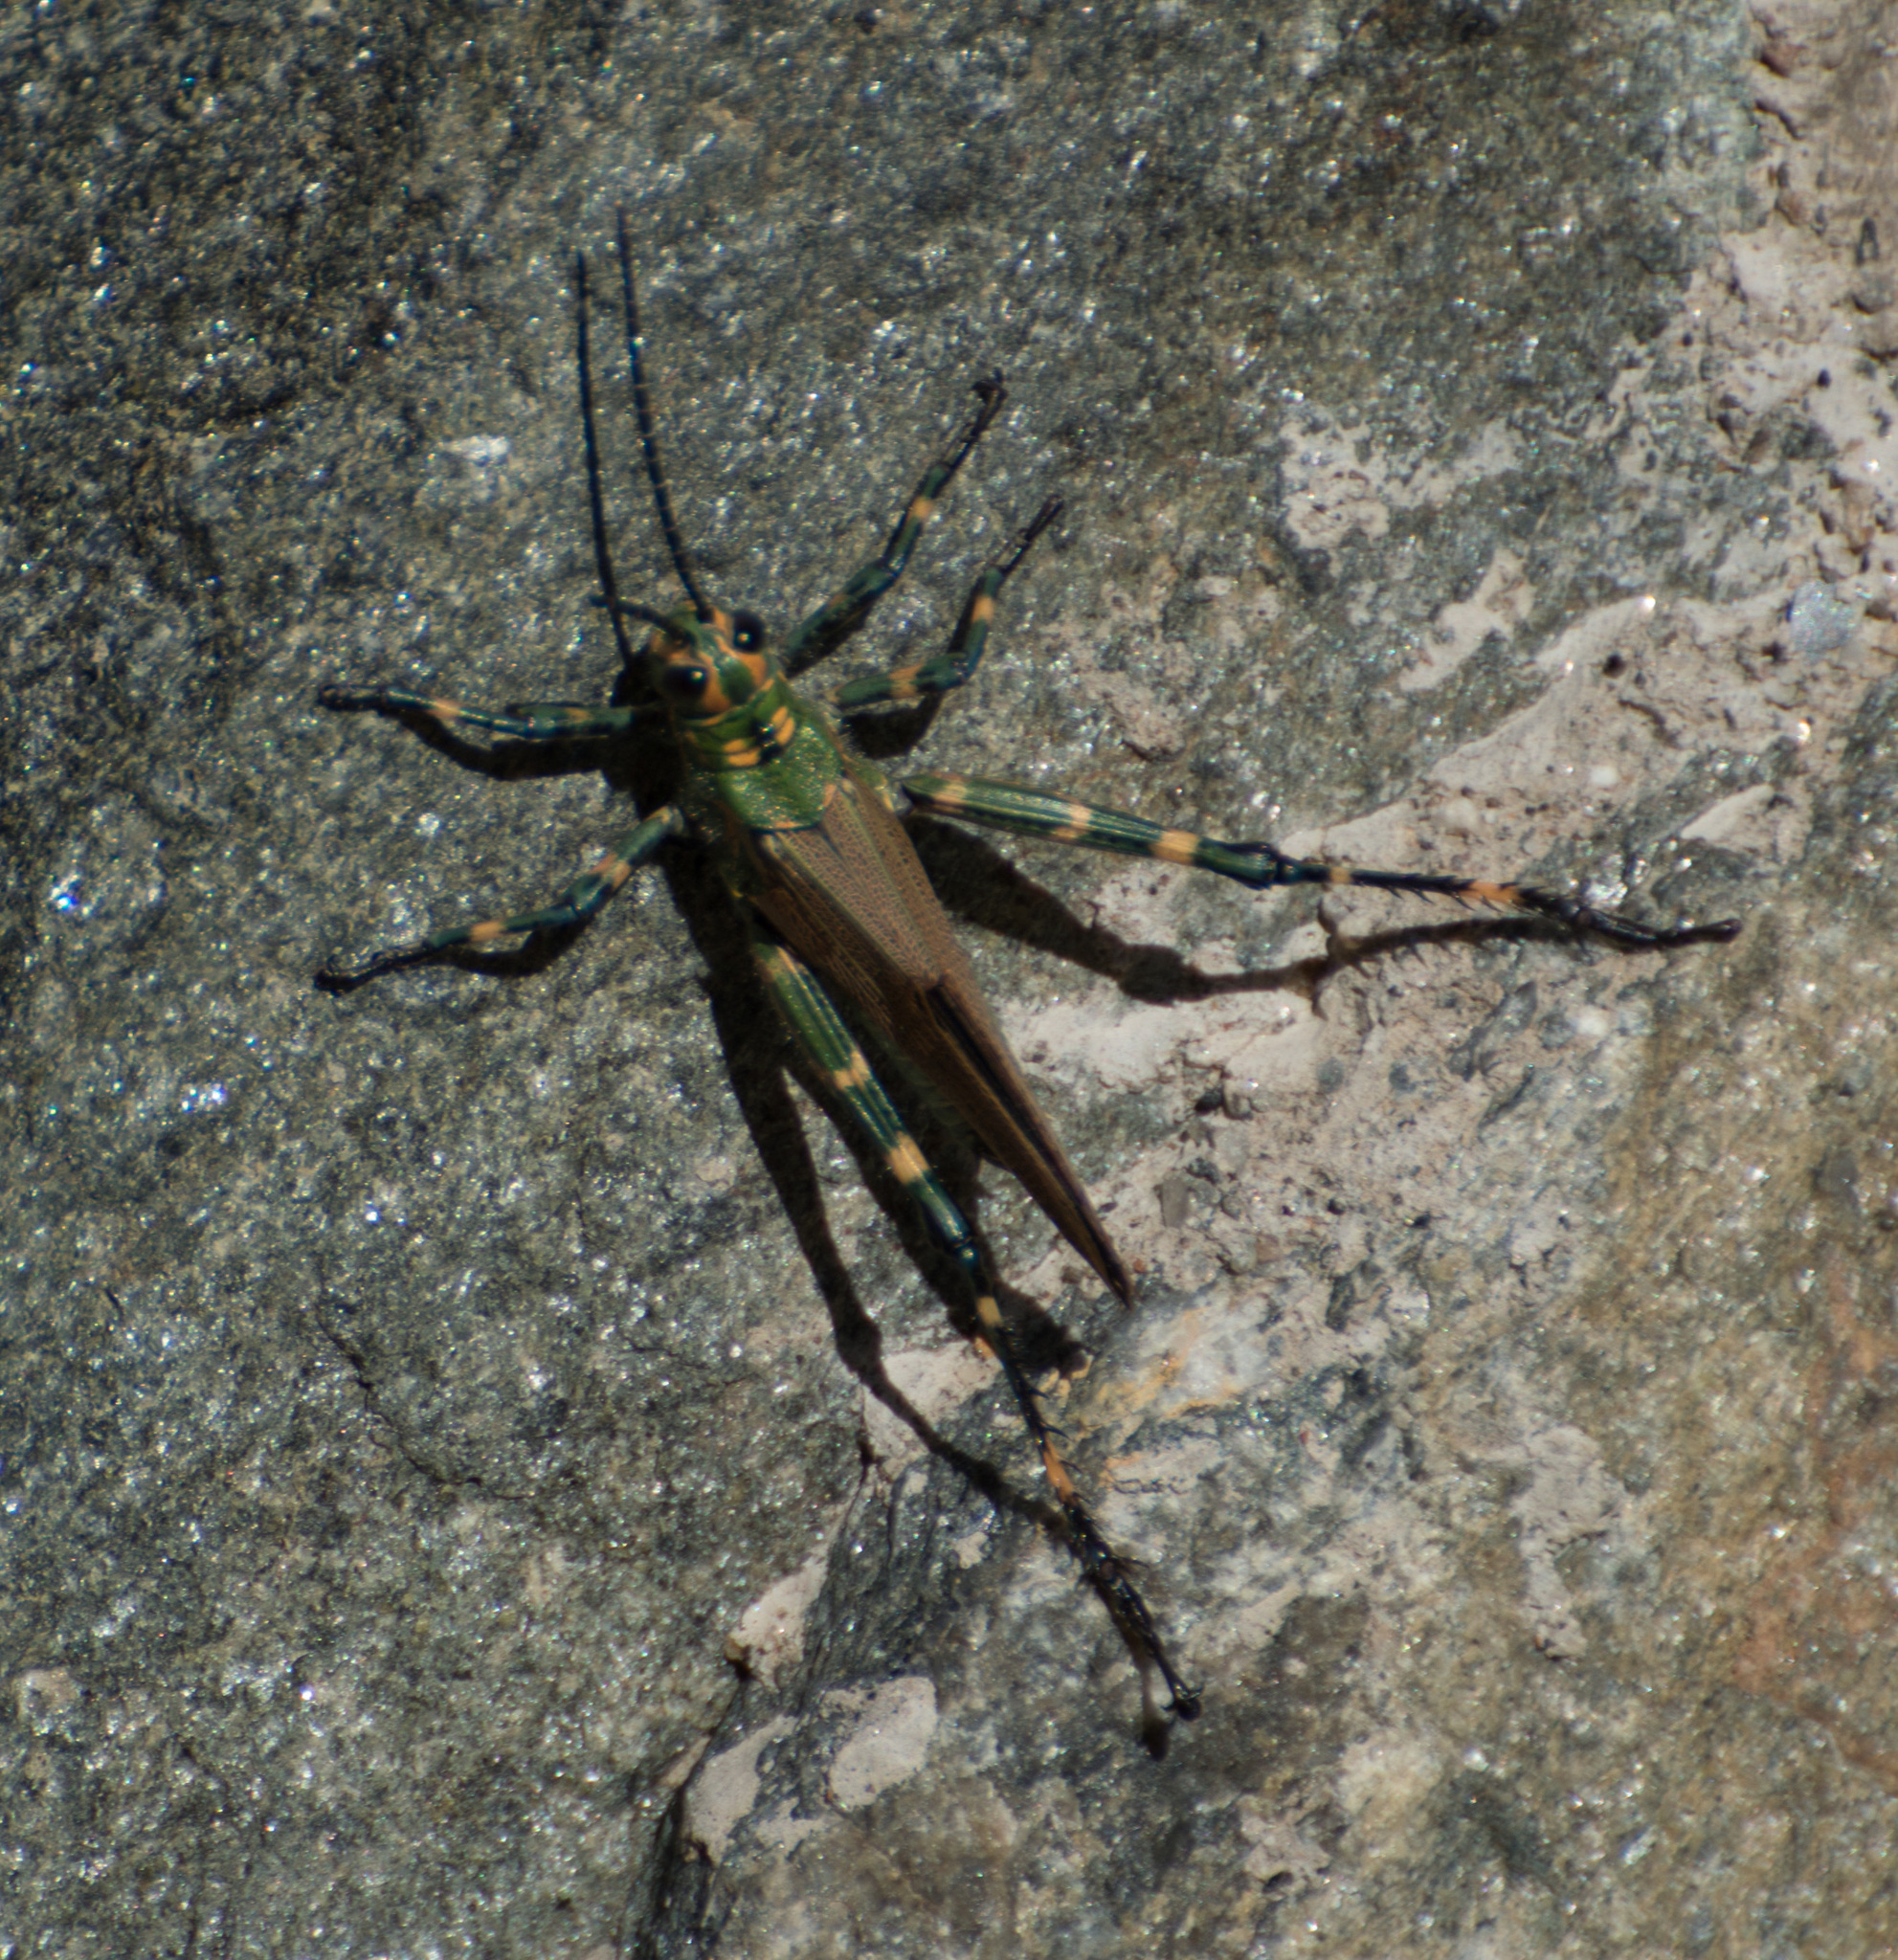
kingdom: Animalia
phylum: Arthropoda
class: Insecta
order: Orthoptera
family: Romaleidae
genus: Chromacris
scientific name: Chromacris speciosa
